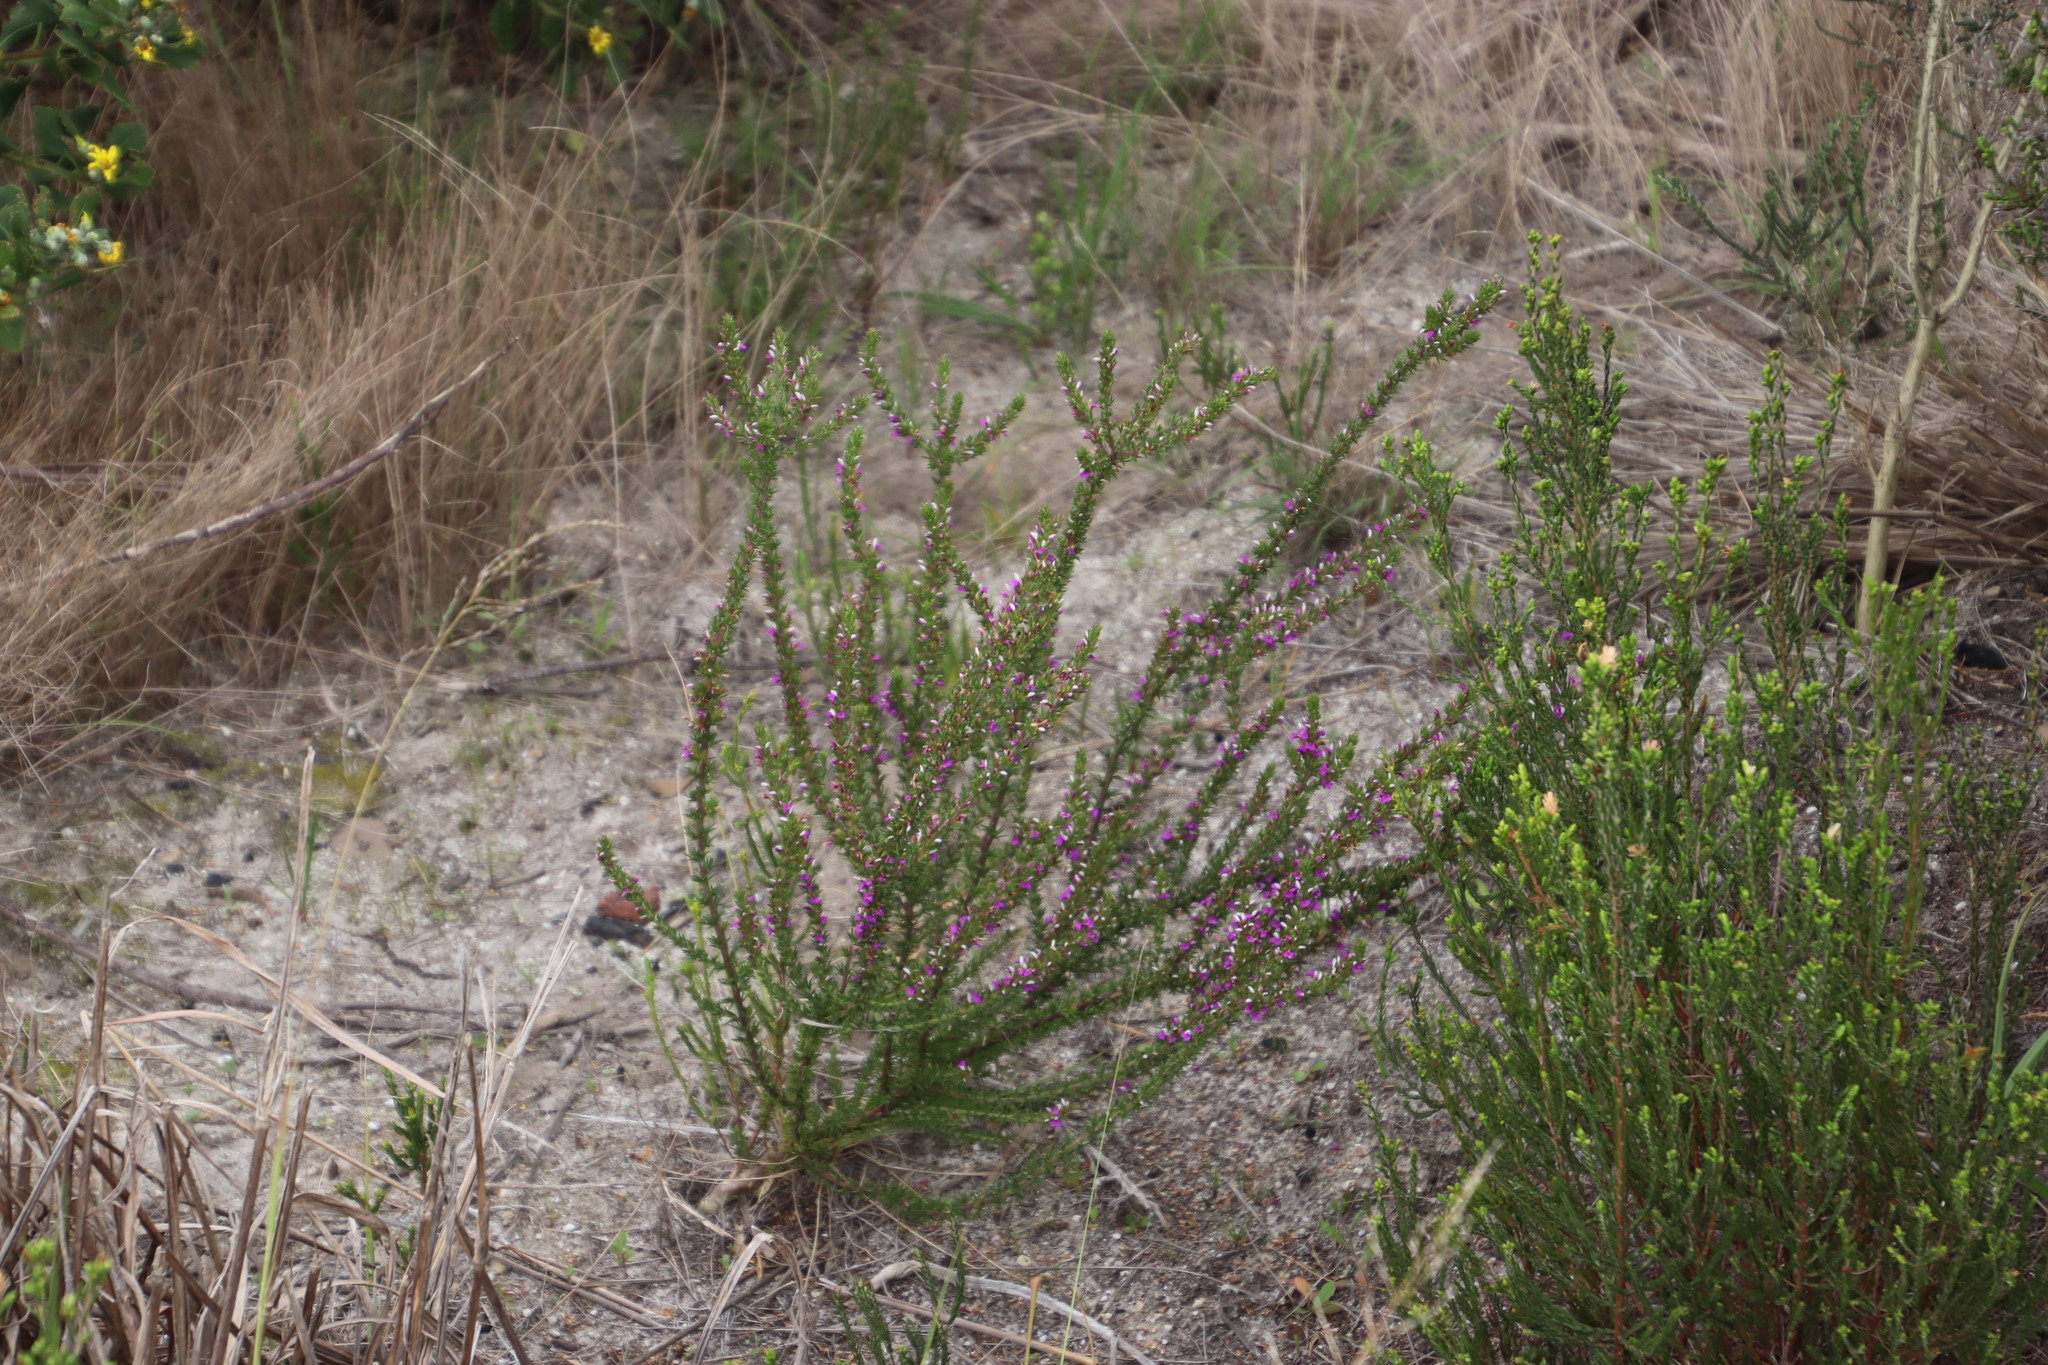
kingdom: Plantae
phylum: Tracheophyta
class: Magnoliopsida
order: Fabales
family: Polygalaceae
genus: Muraltia
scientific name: Muraltia heisteria
